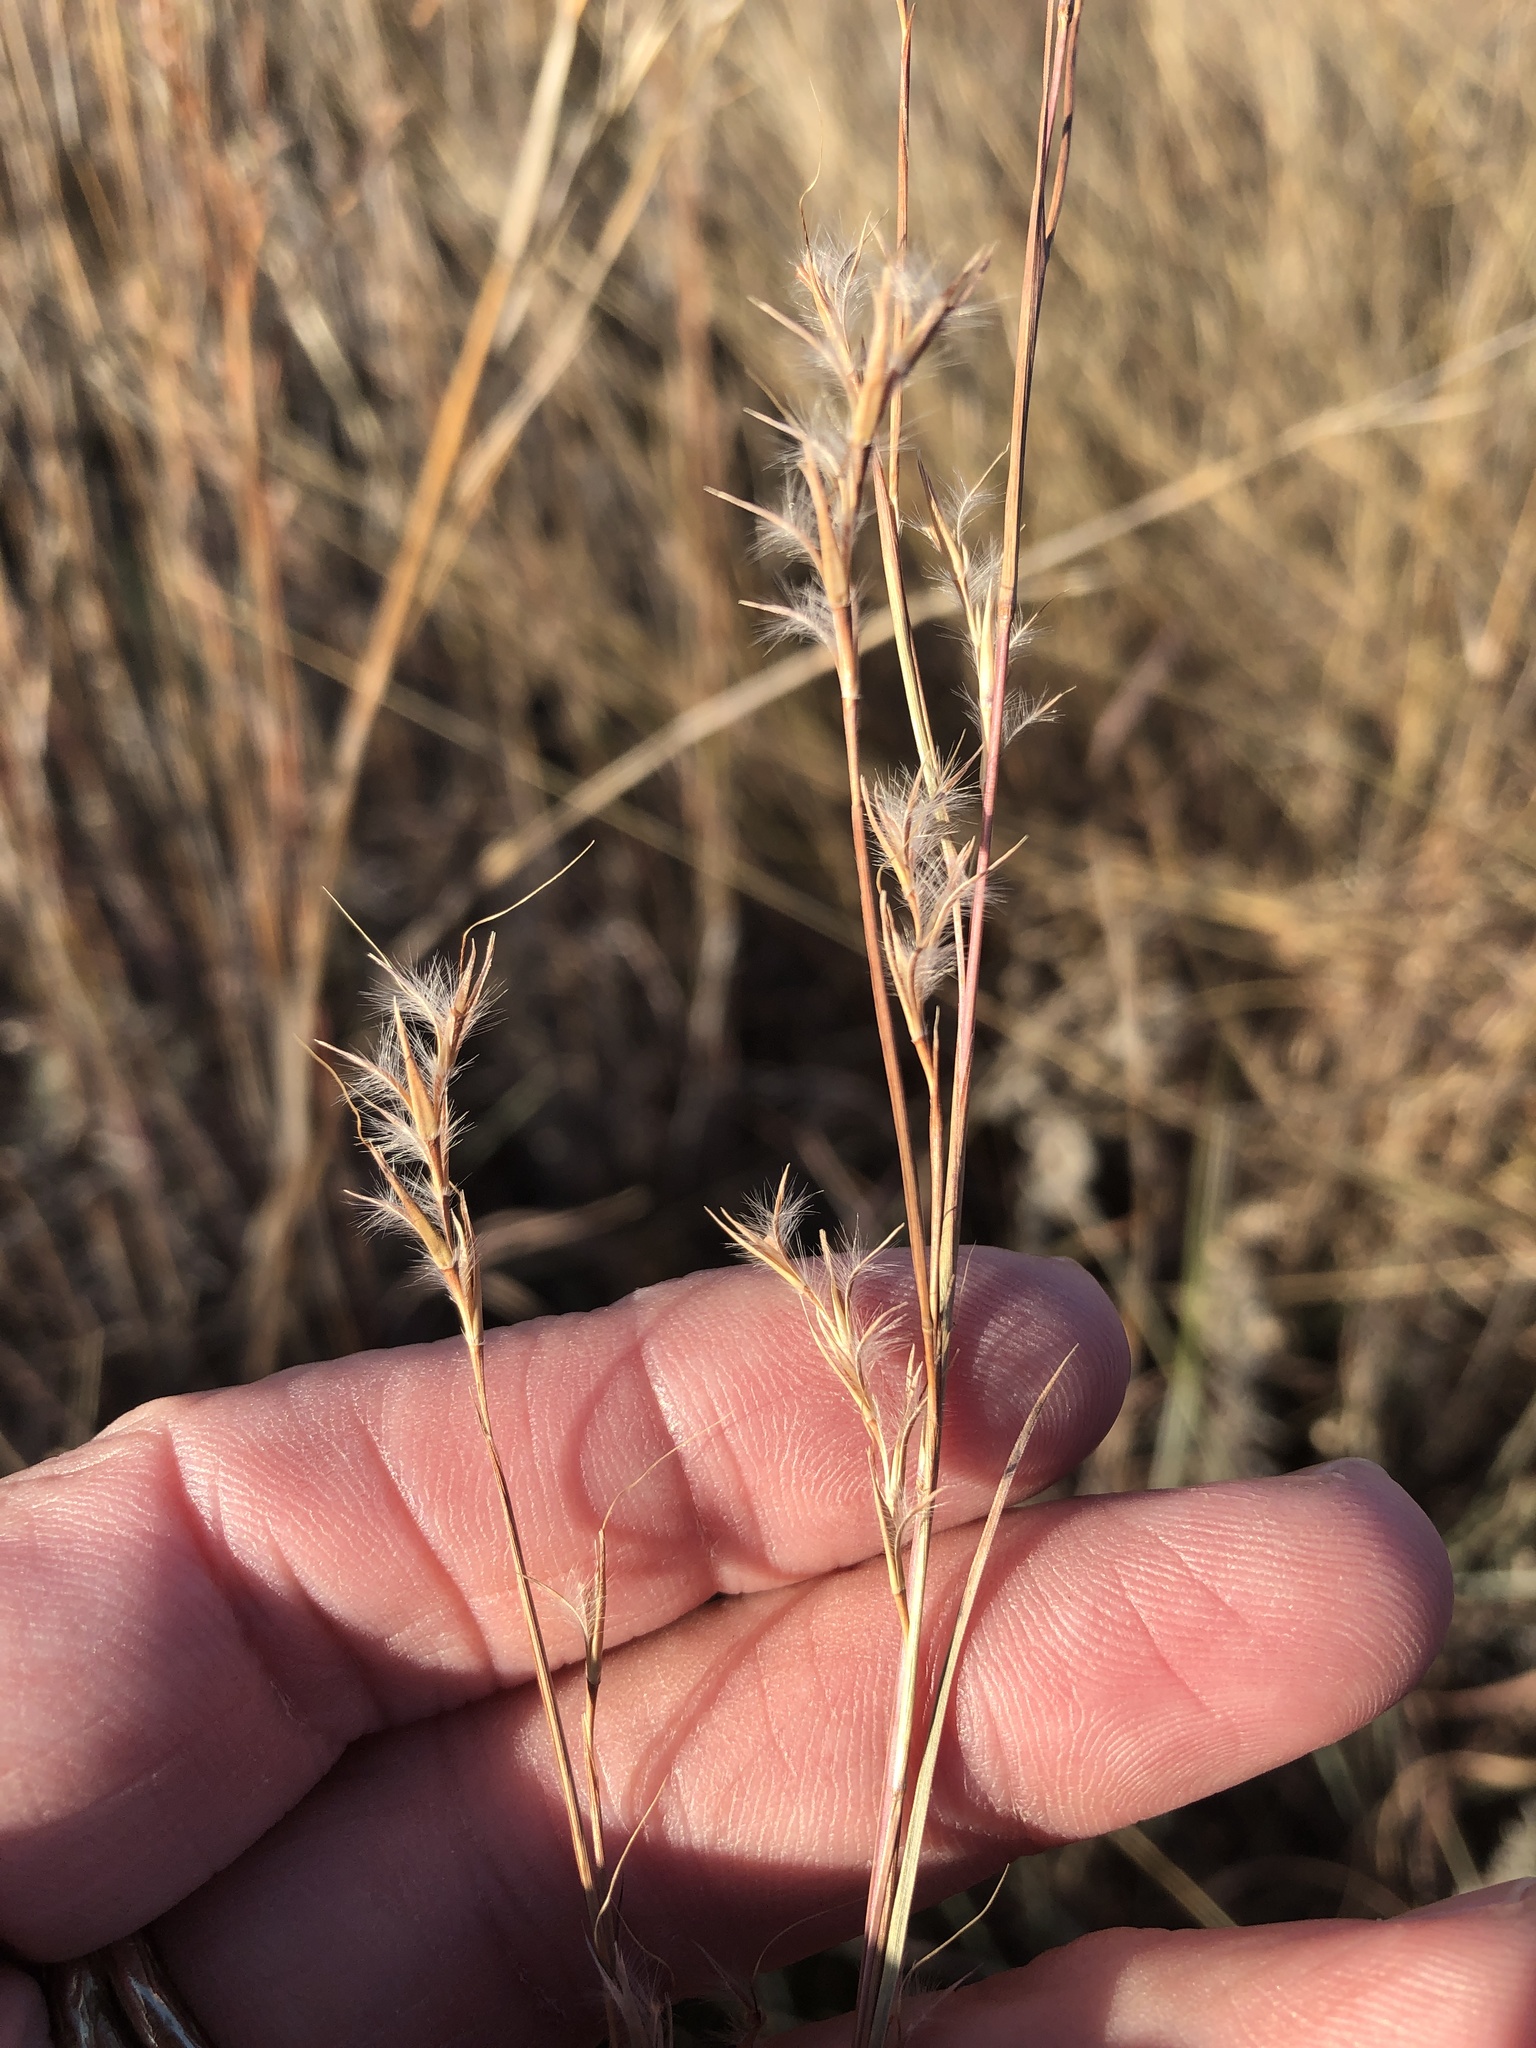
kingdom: Plantae
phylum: Tracheophyta
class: Liliopsida
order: Poales
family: Poaceae
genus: Schizachyrium
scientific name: Schizachyrium scoparium
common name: Little bluestem
